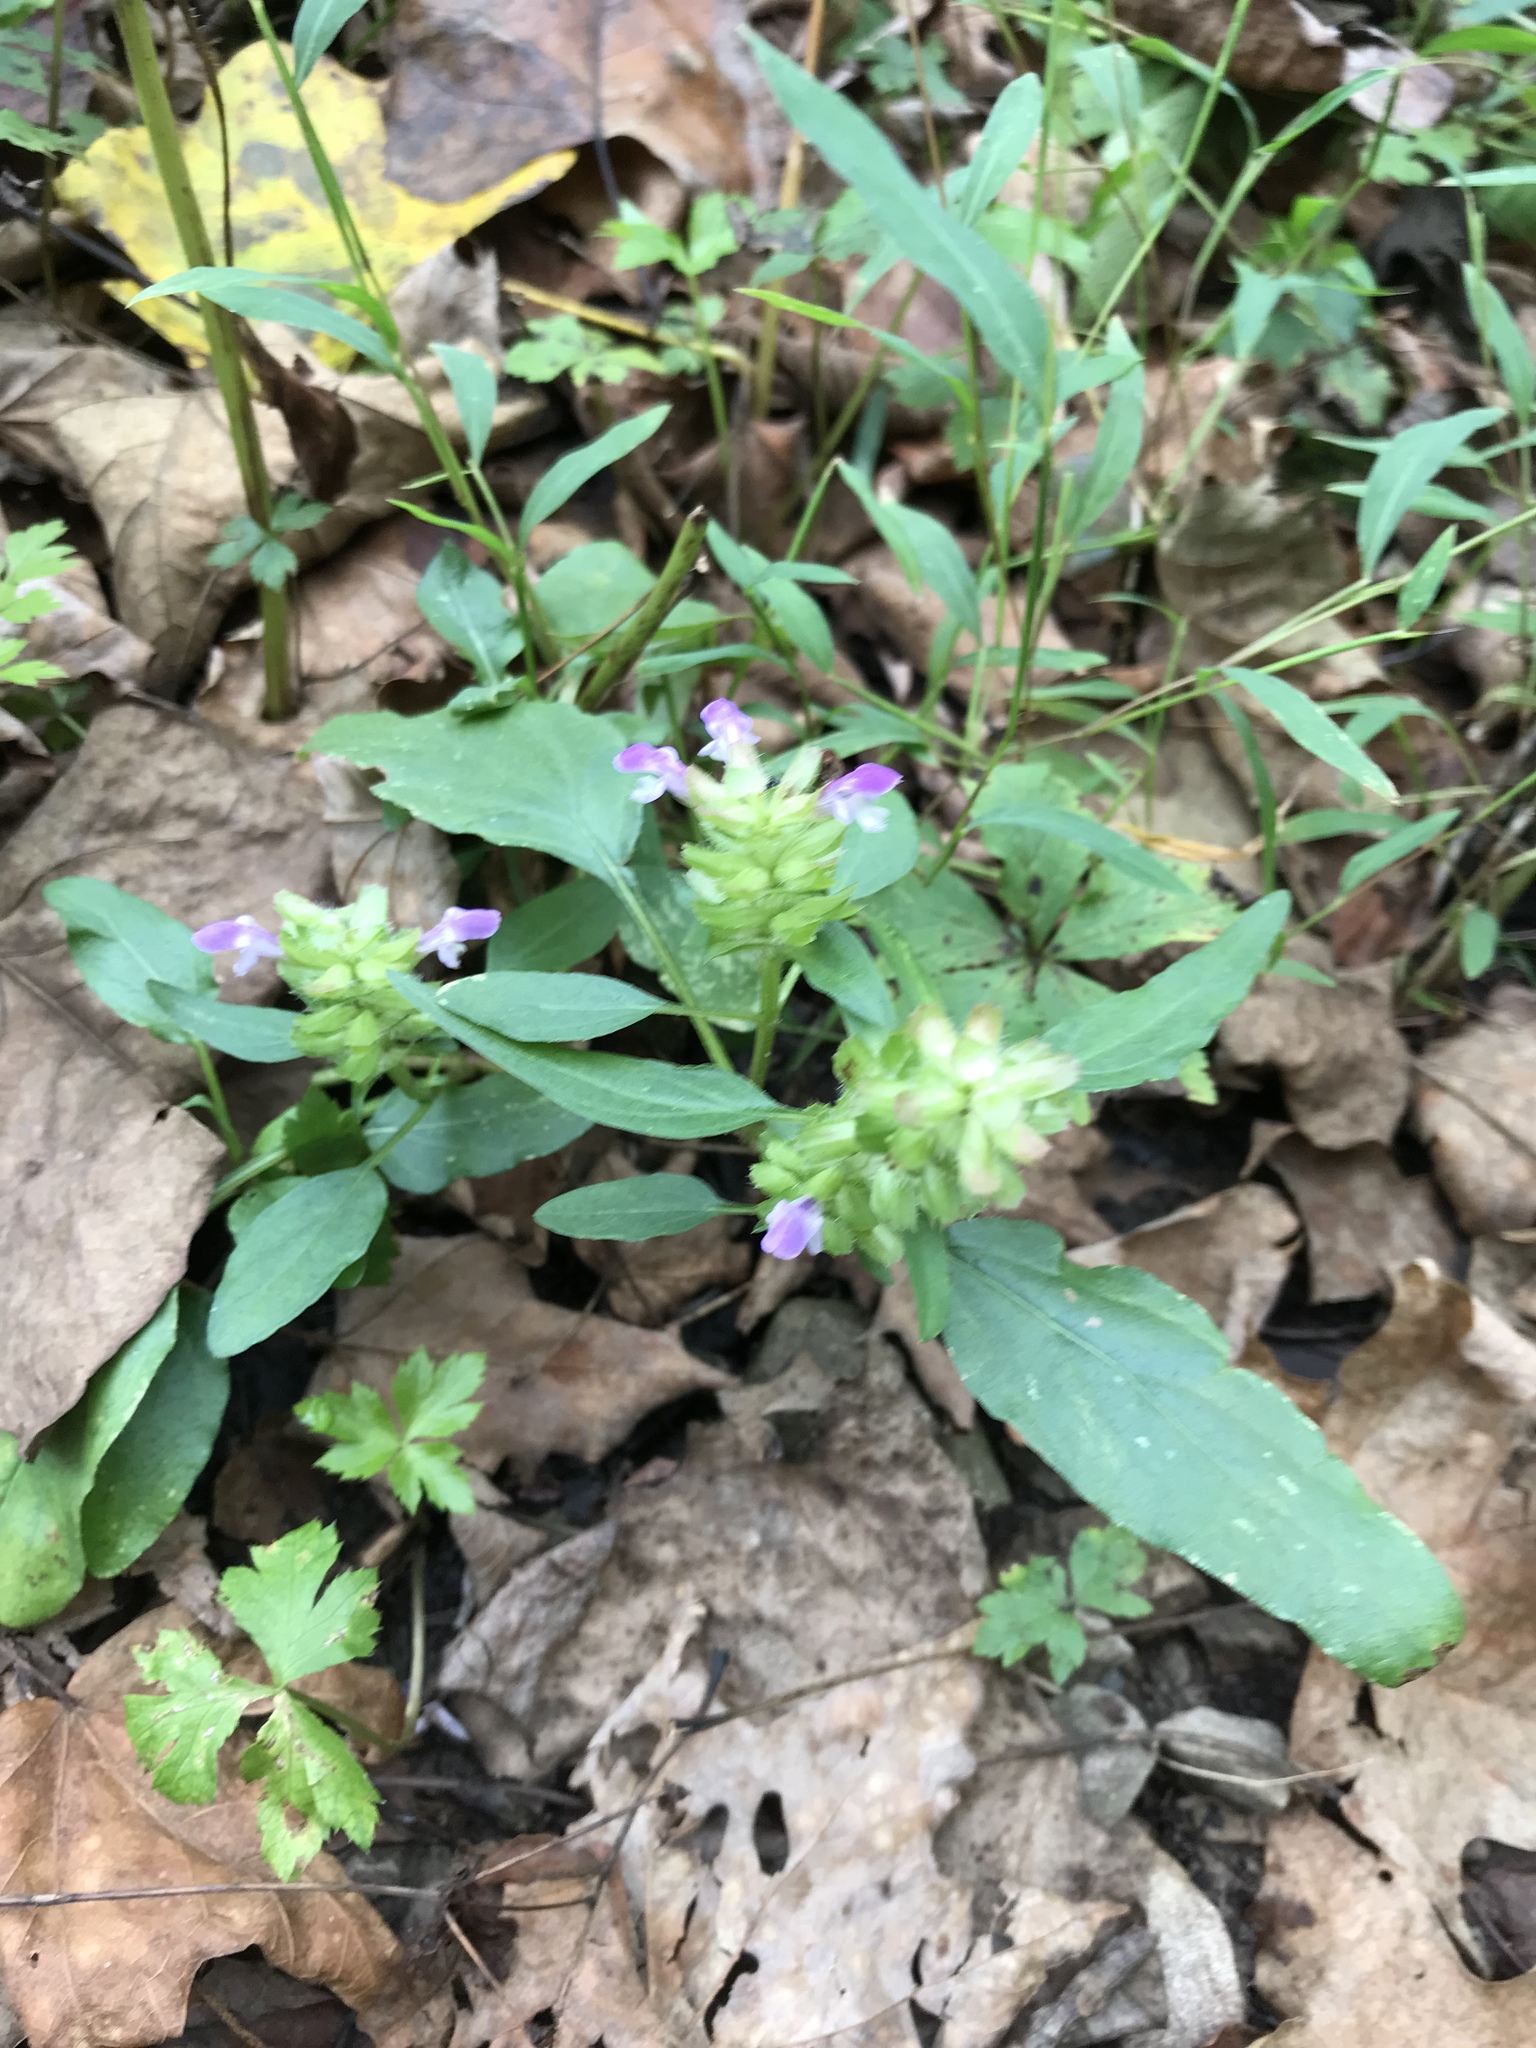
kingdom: Plantae
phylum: Tracheophyta
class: Magnoliopsida
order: Lamiales
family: Lamiaceae
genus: Prunella
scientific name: Prunella vulgaris
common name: Heal-all
